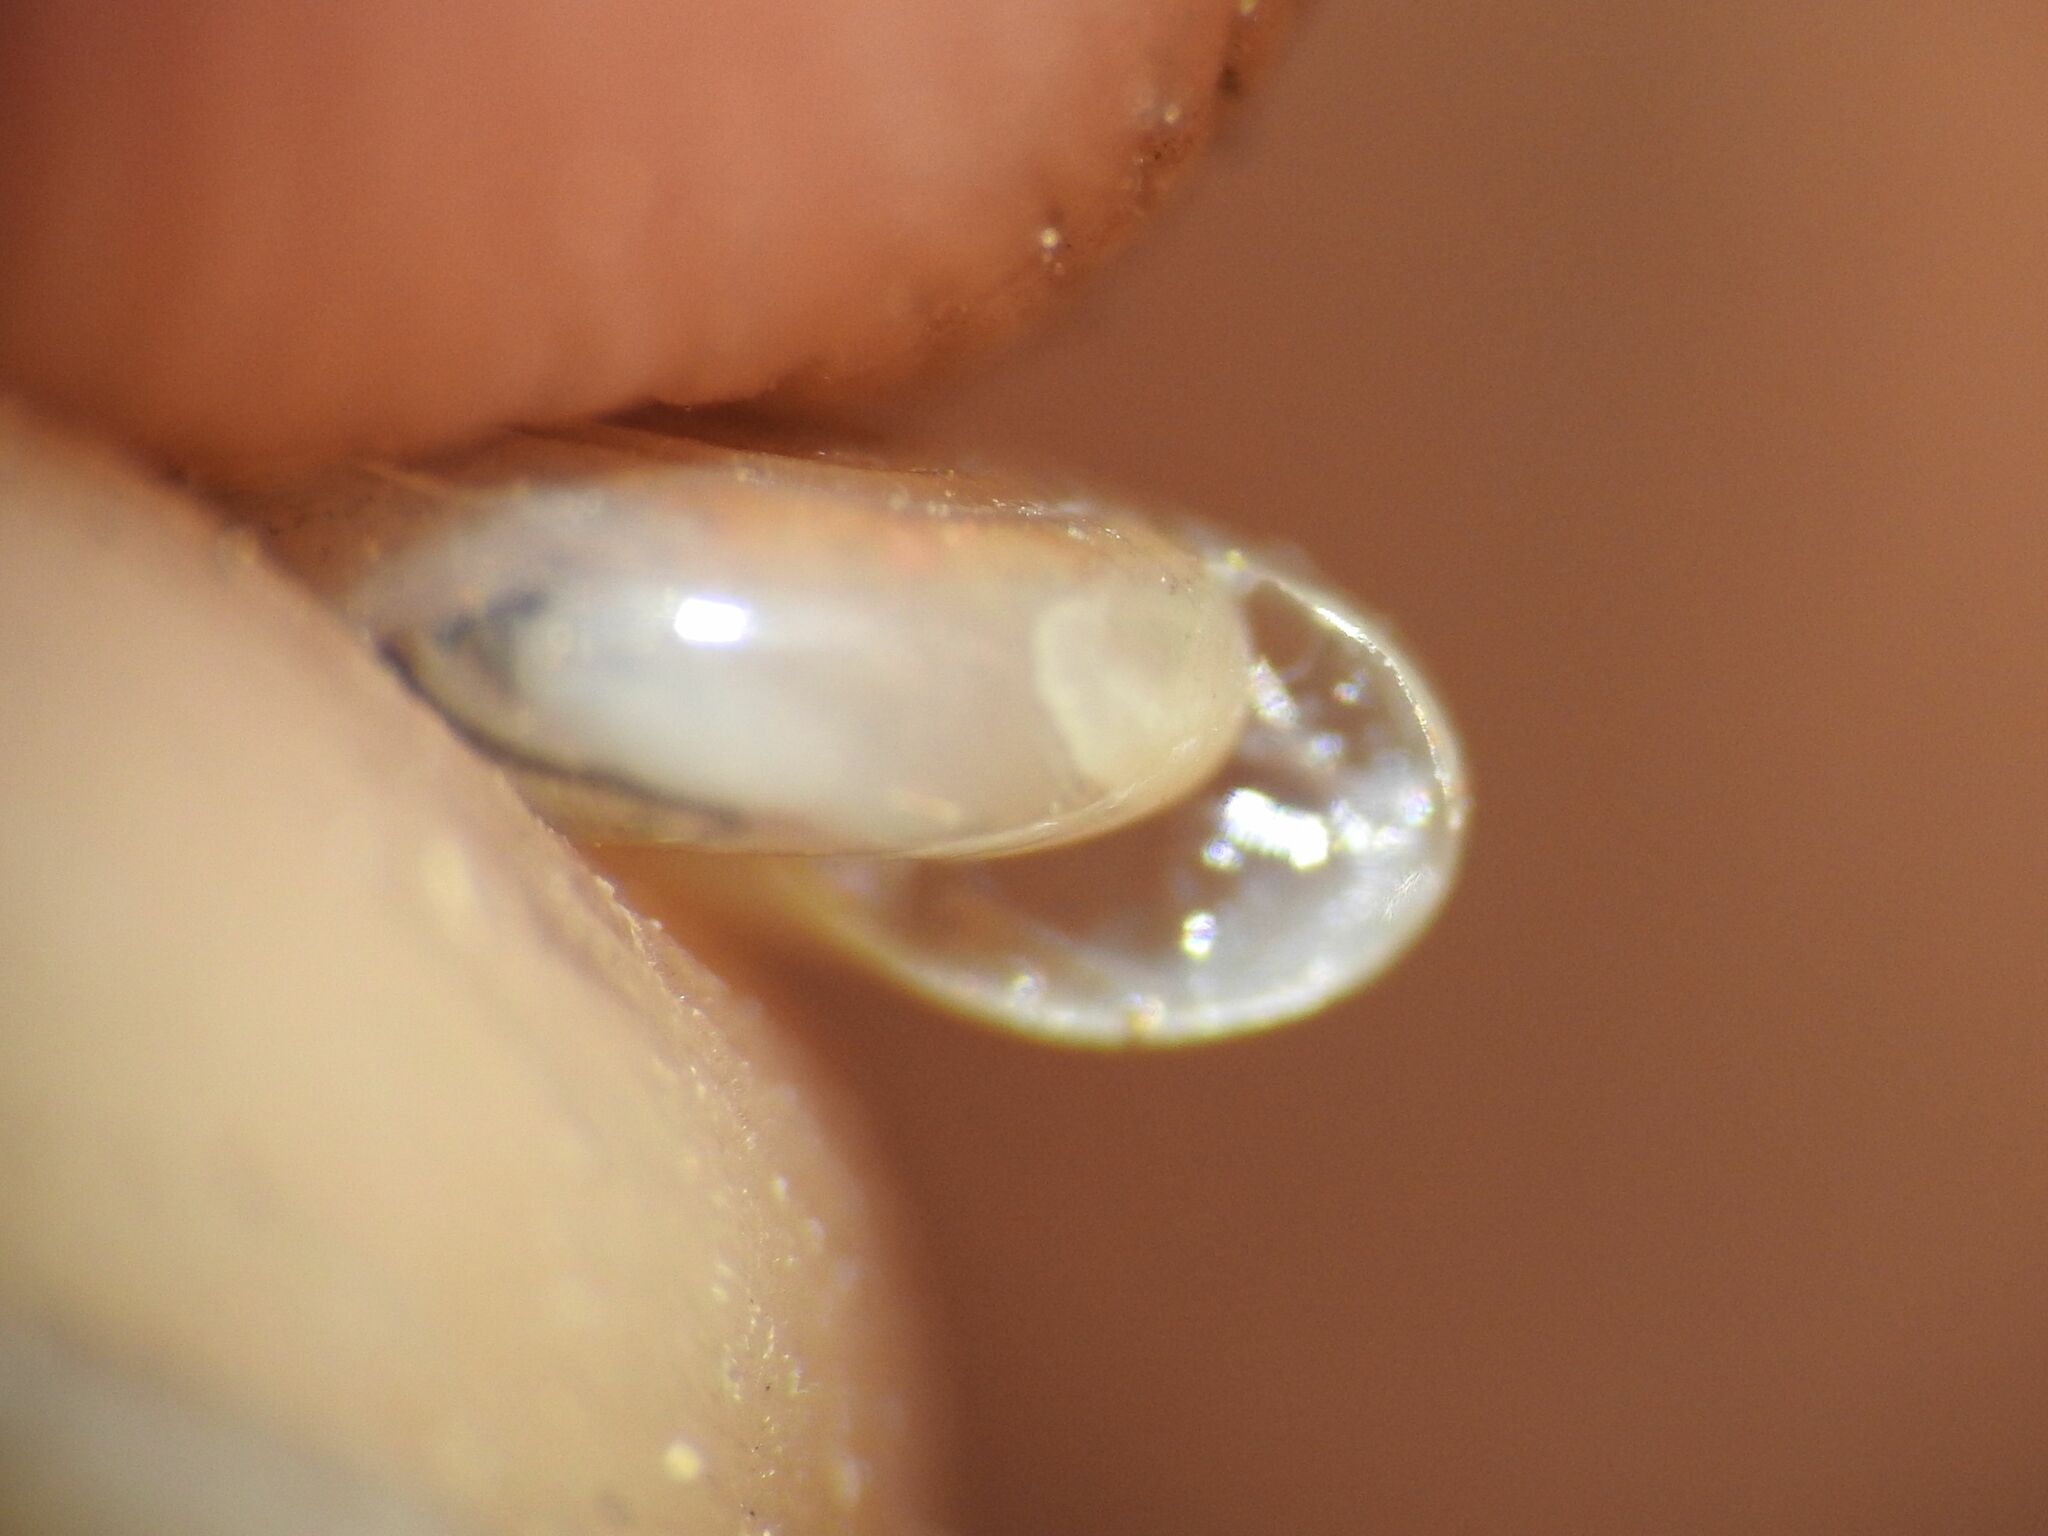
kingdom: Animalia
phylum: Mollusca
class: Gastropoda
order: Stylommatophora
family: Pristilomatidae
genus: Vitrea
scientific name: Vitrea subrimata
